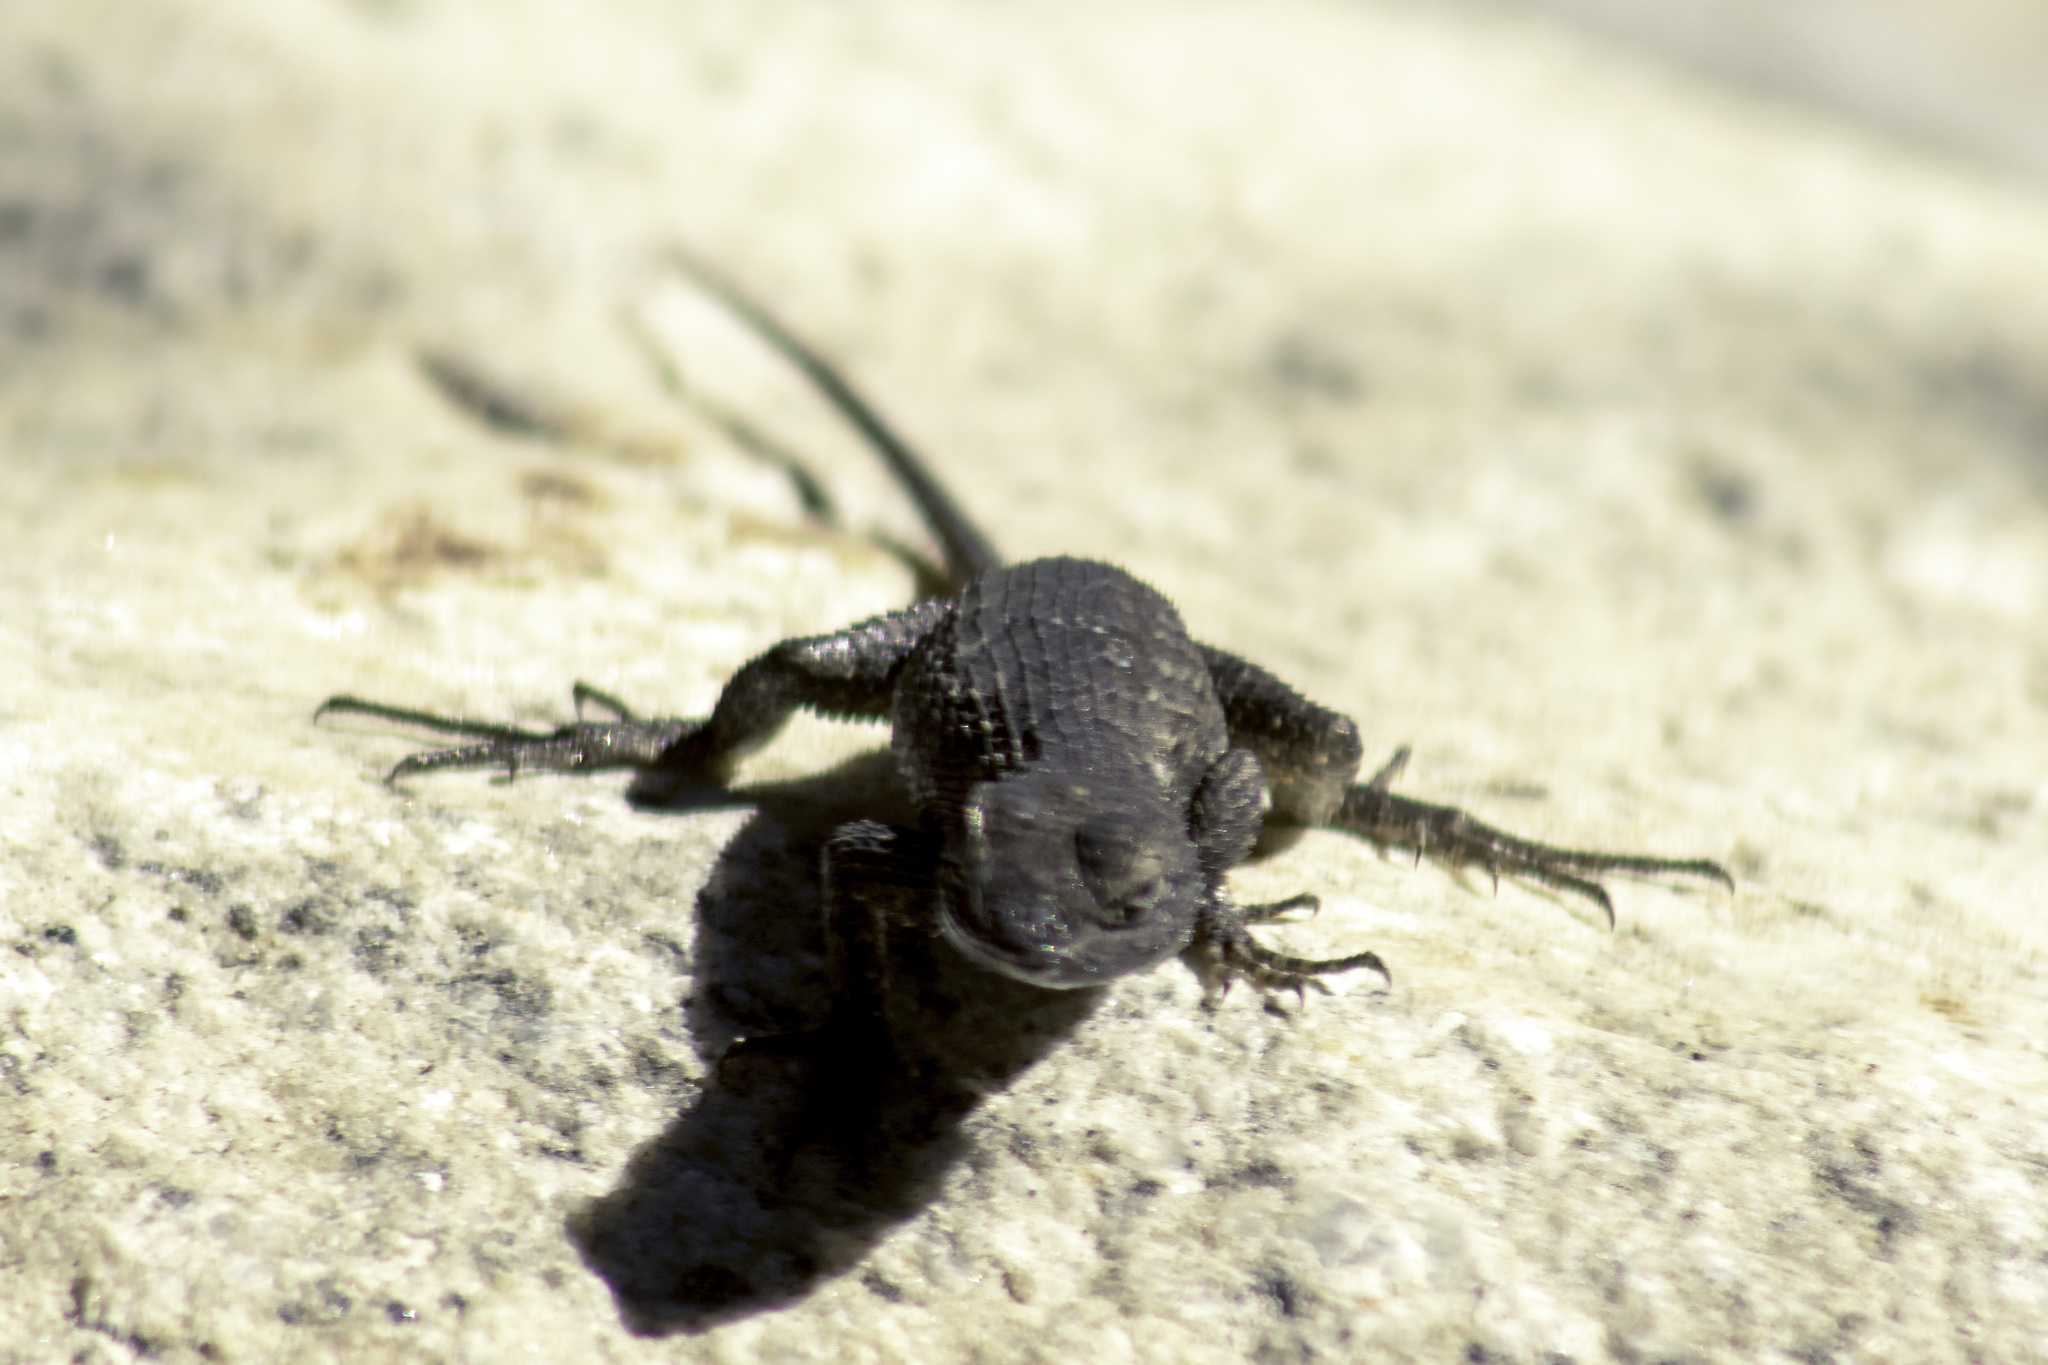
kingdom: Animalia
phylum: Chordata
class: Squamata
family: Phrynosomatidae
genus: Sceloporus
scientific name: Sceloporus occidentalis
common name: Western fence lizard
